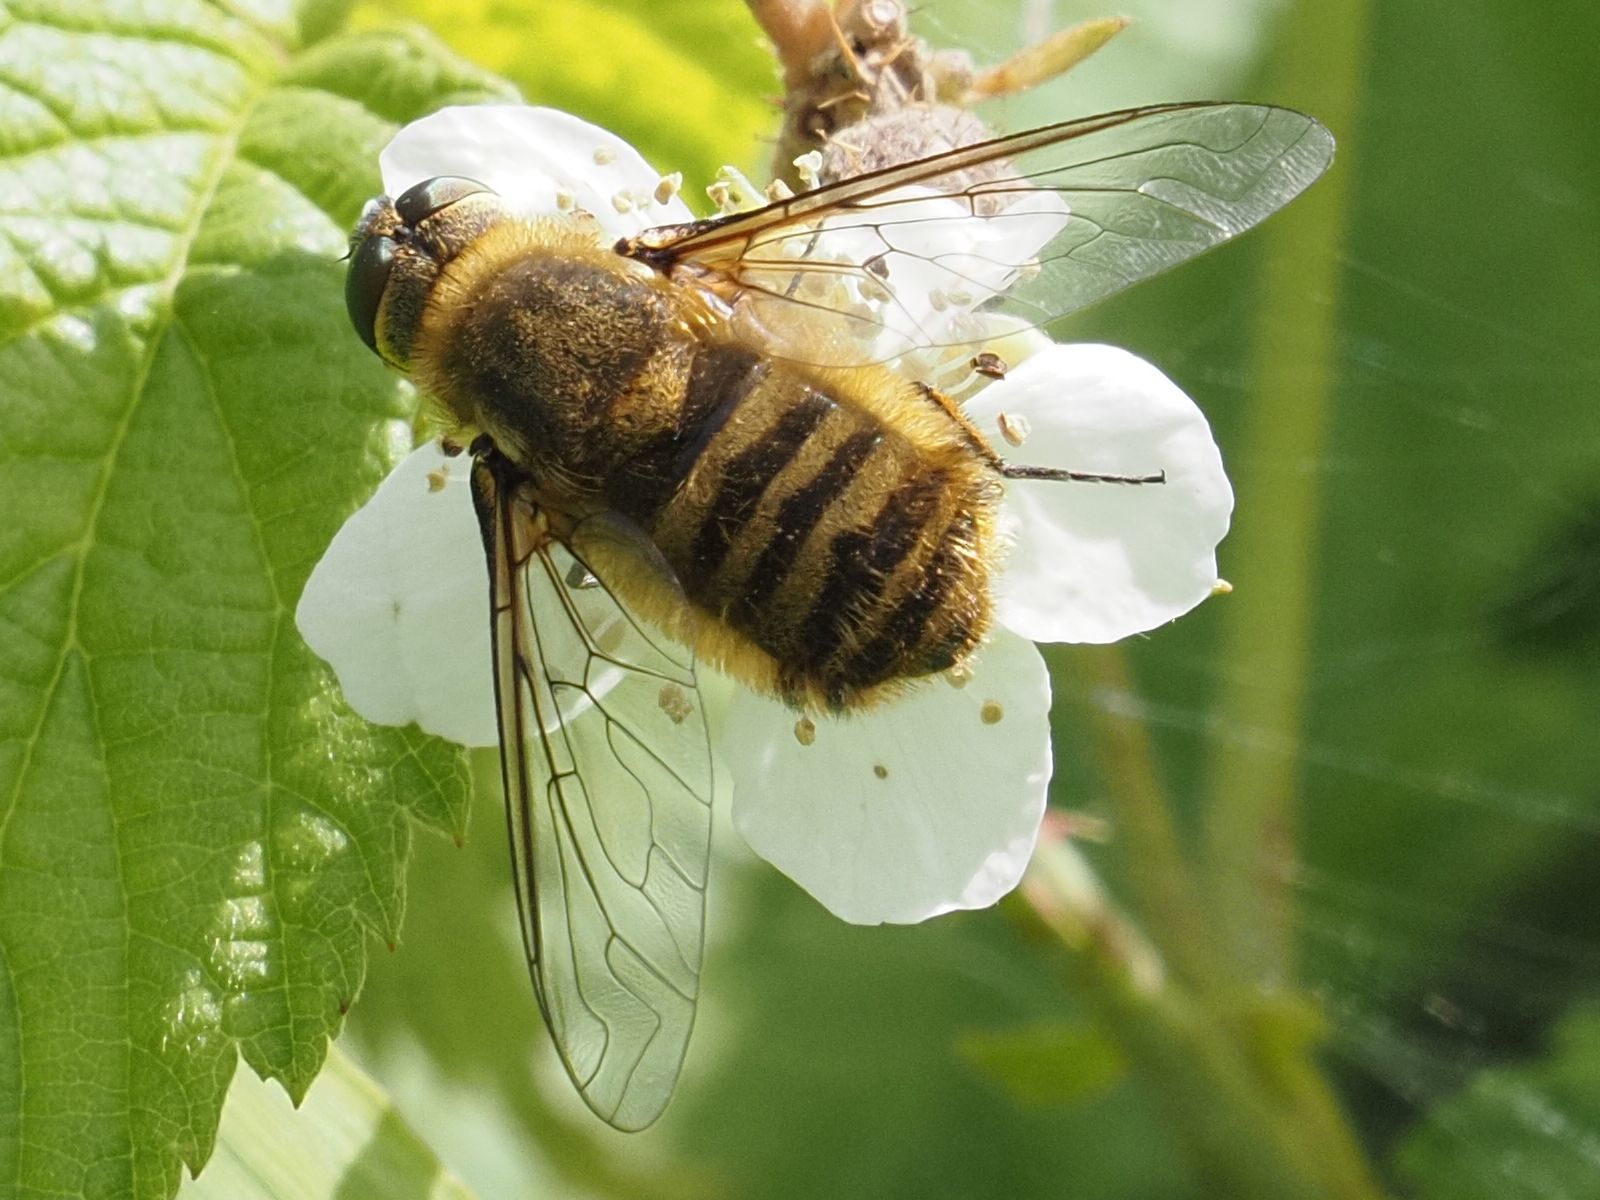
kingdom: Animalia
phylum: Arthropoda
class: Insecta
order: Diptera
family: Bombyliidae
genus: Villa
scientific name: Villa hottentotta
